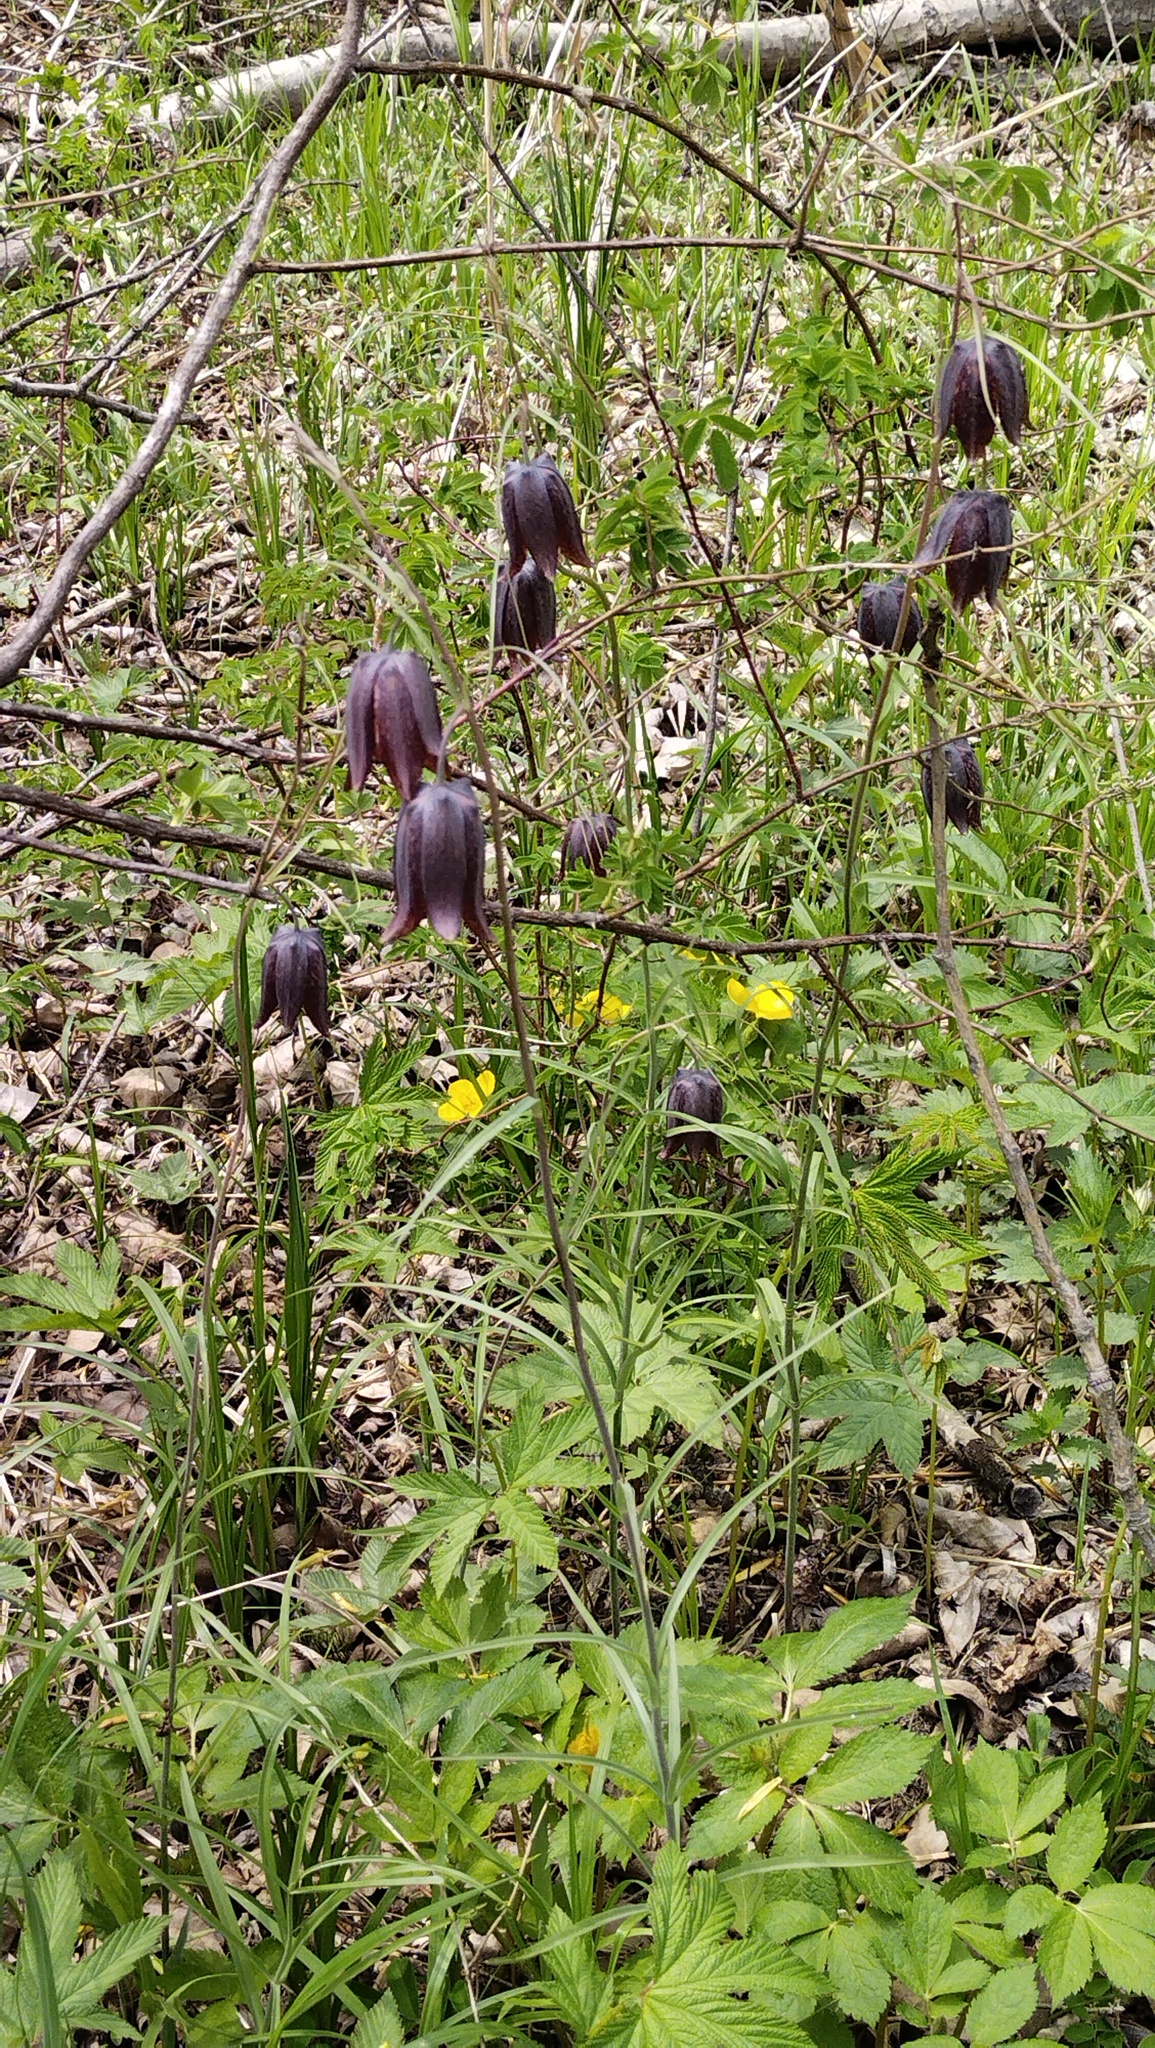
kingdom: Plantae
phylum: Tracheophyta
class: Liliopsida
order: Liliales
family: Liliaceae
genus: Fritillaria
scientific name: Fritillaria usuriensis
